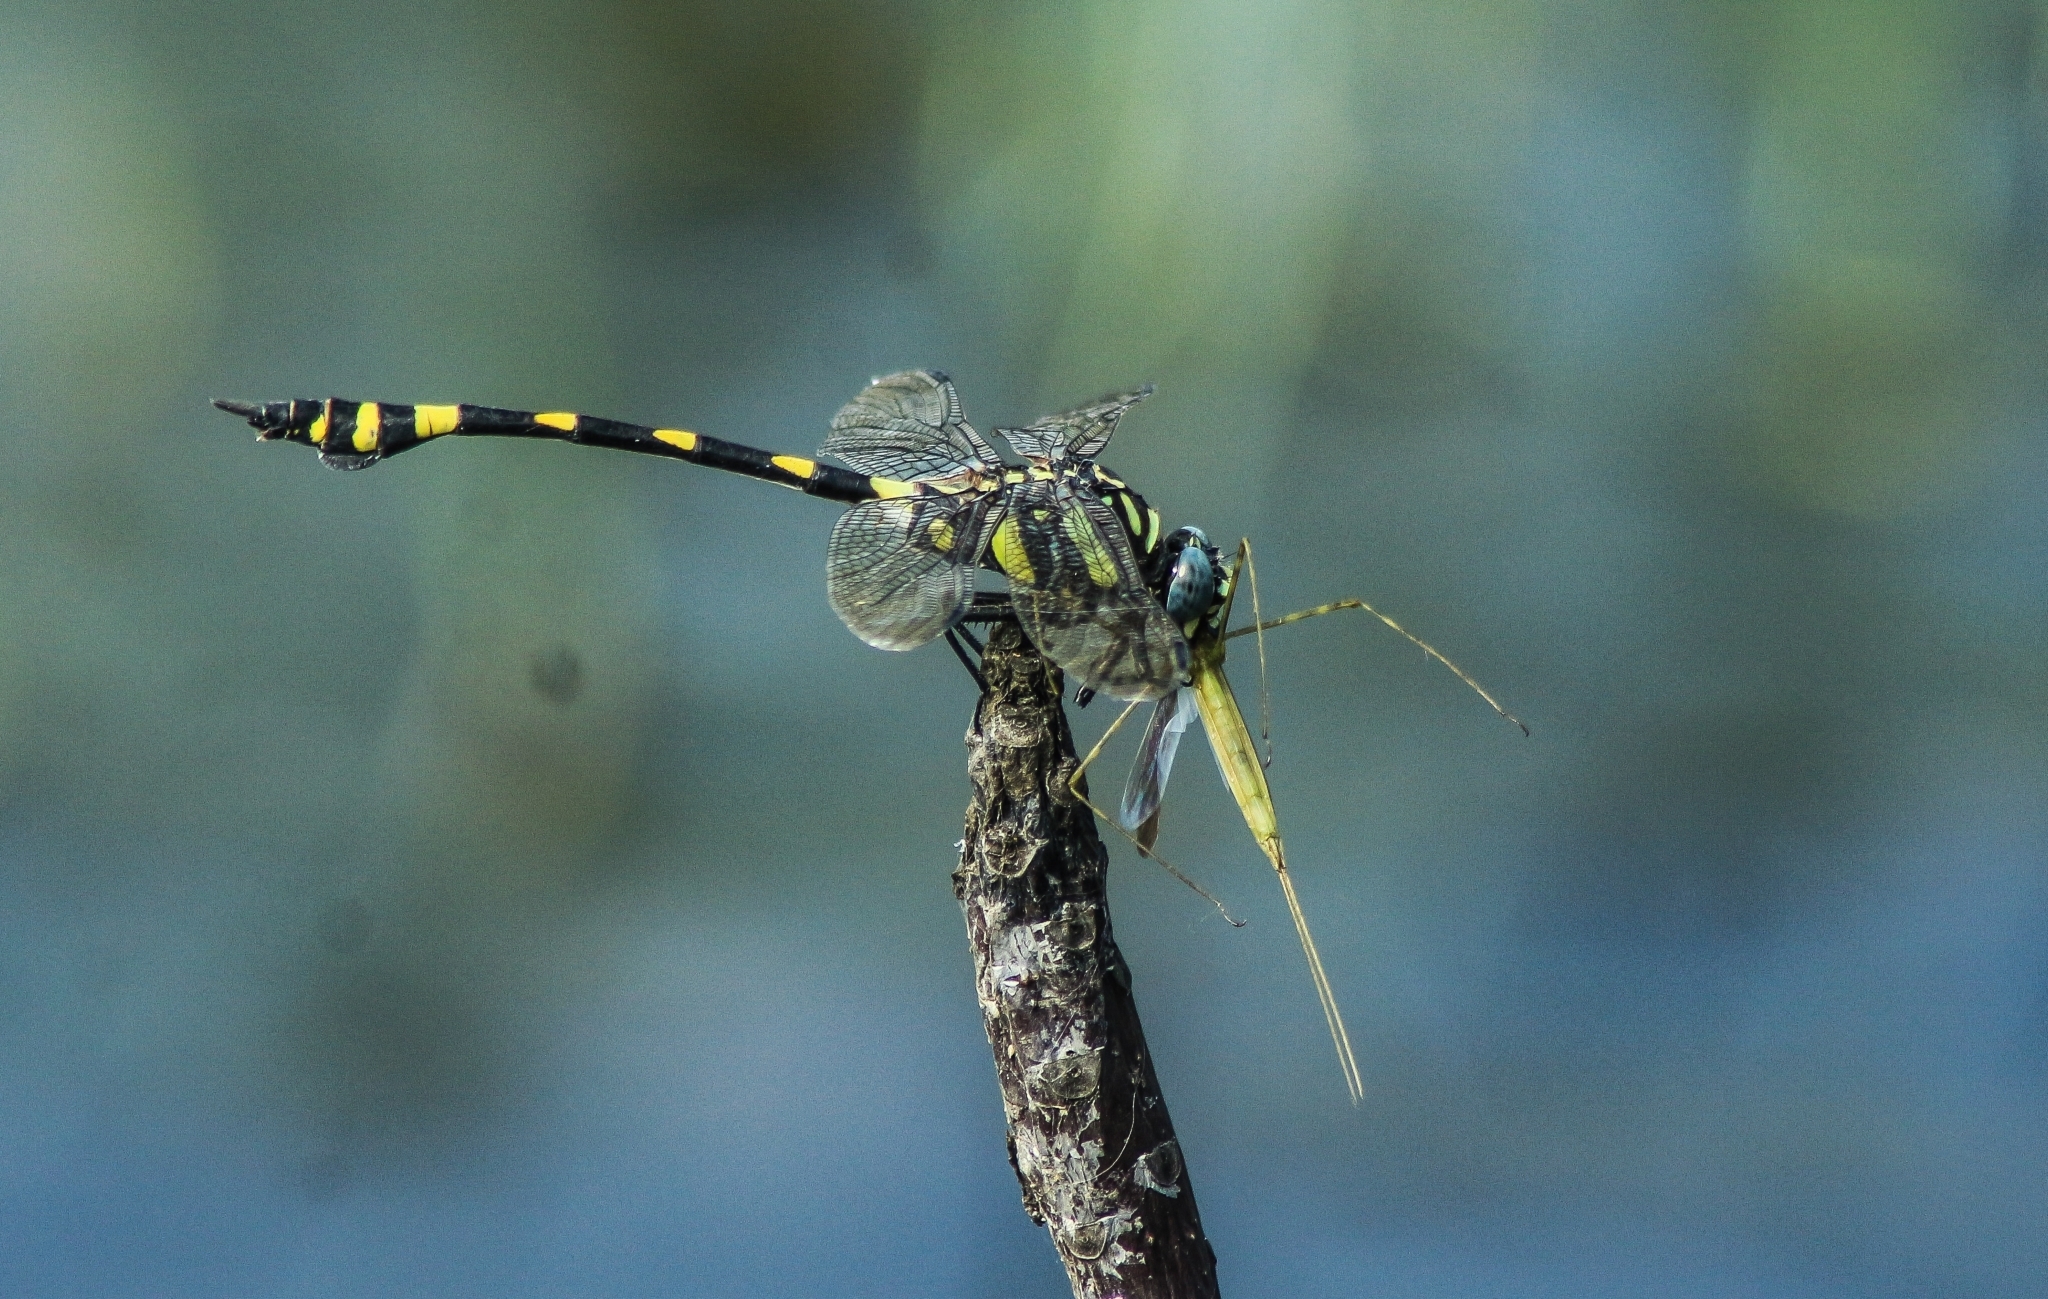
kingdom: Animalia
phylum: Arthropoda
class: Insecta
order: Odonata
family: Gomphidae
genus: Ictinogomphus
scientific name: Ictinogomphus rapax
